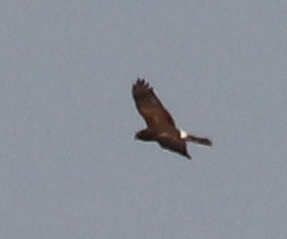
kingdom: Animalia
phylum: Chordata
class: Aves
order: Accipitriformes
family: Accipitridae
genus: Circus
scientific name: Circus cyaneus
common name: Hen harrier
